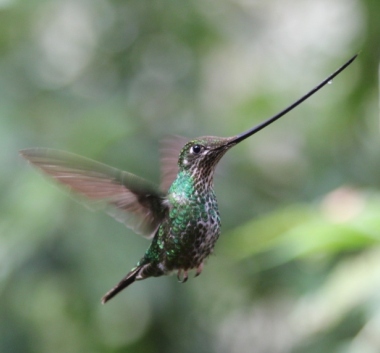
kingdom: Animalia
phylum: Chordata
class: Aves
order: Apodiformes
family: Trochilidae
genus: Ensifera
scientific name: Ensifera ensifera
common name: Sword-billed hummingbird
